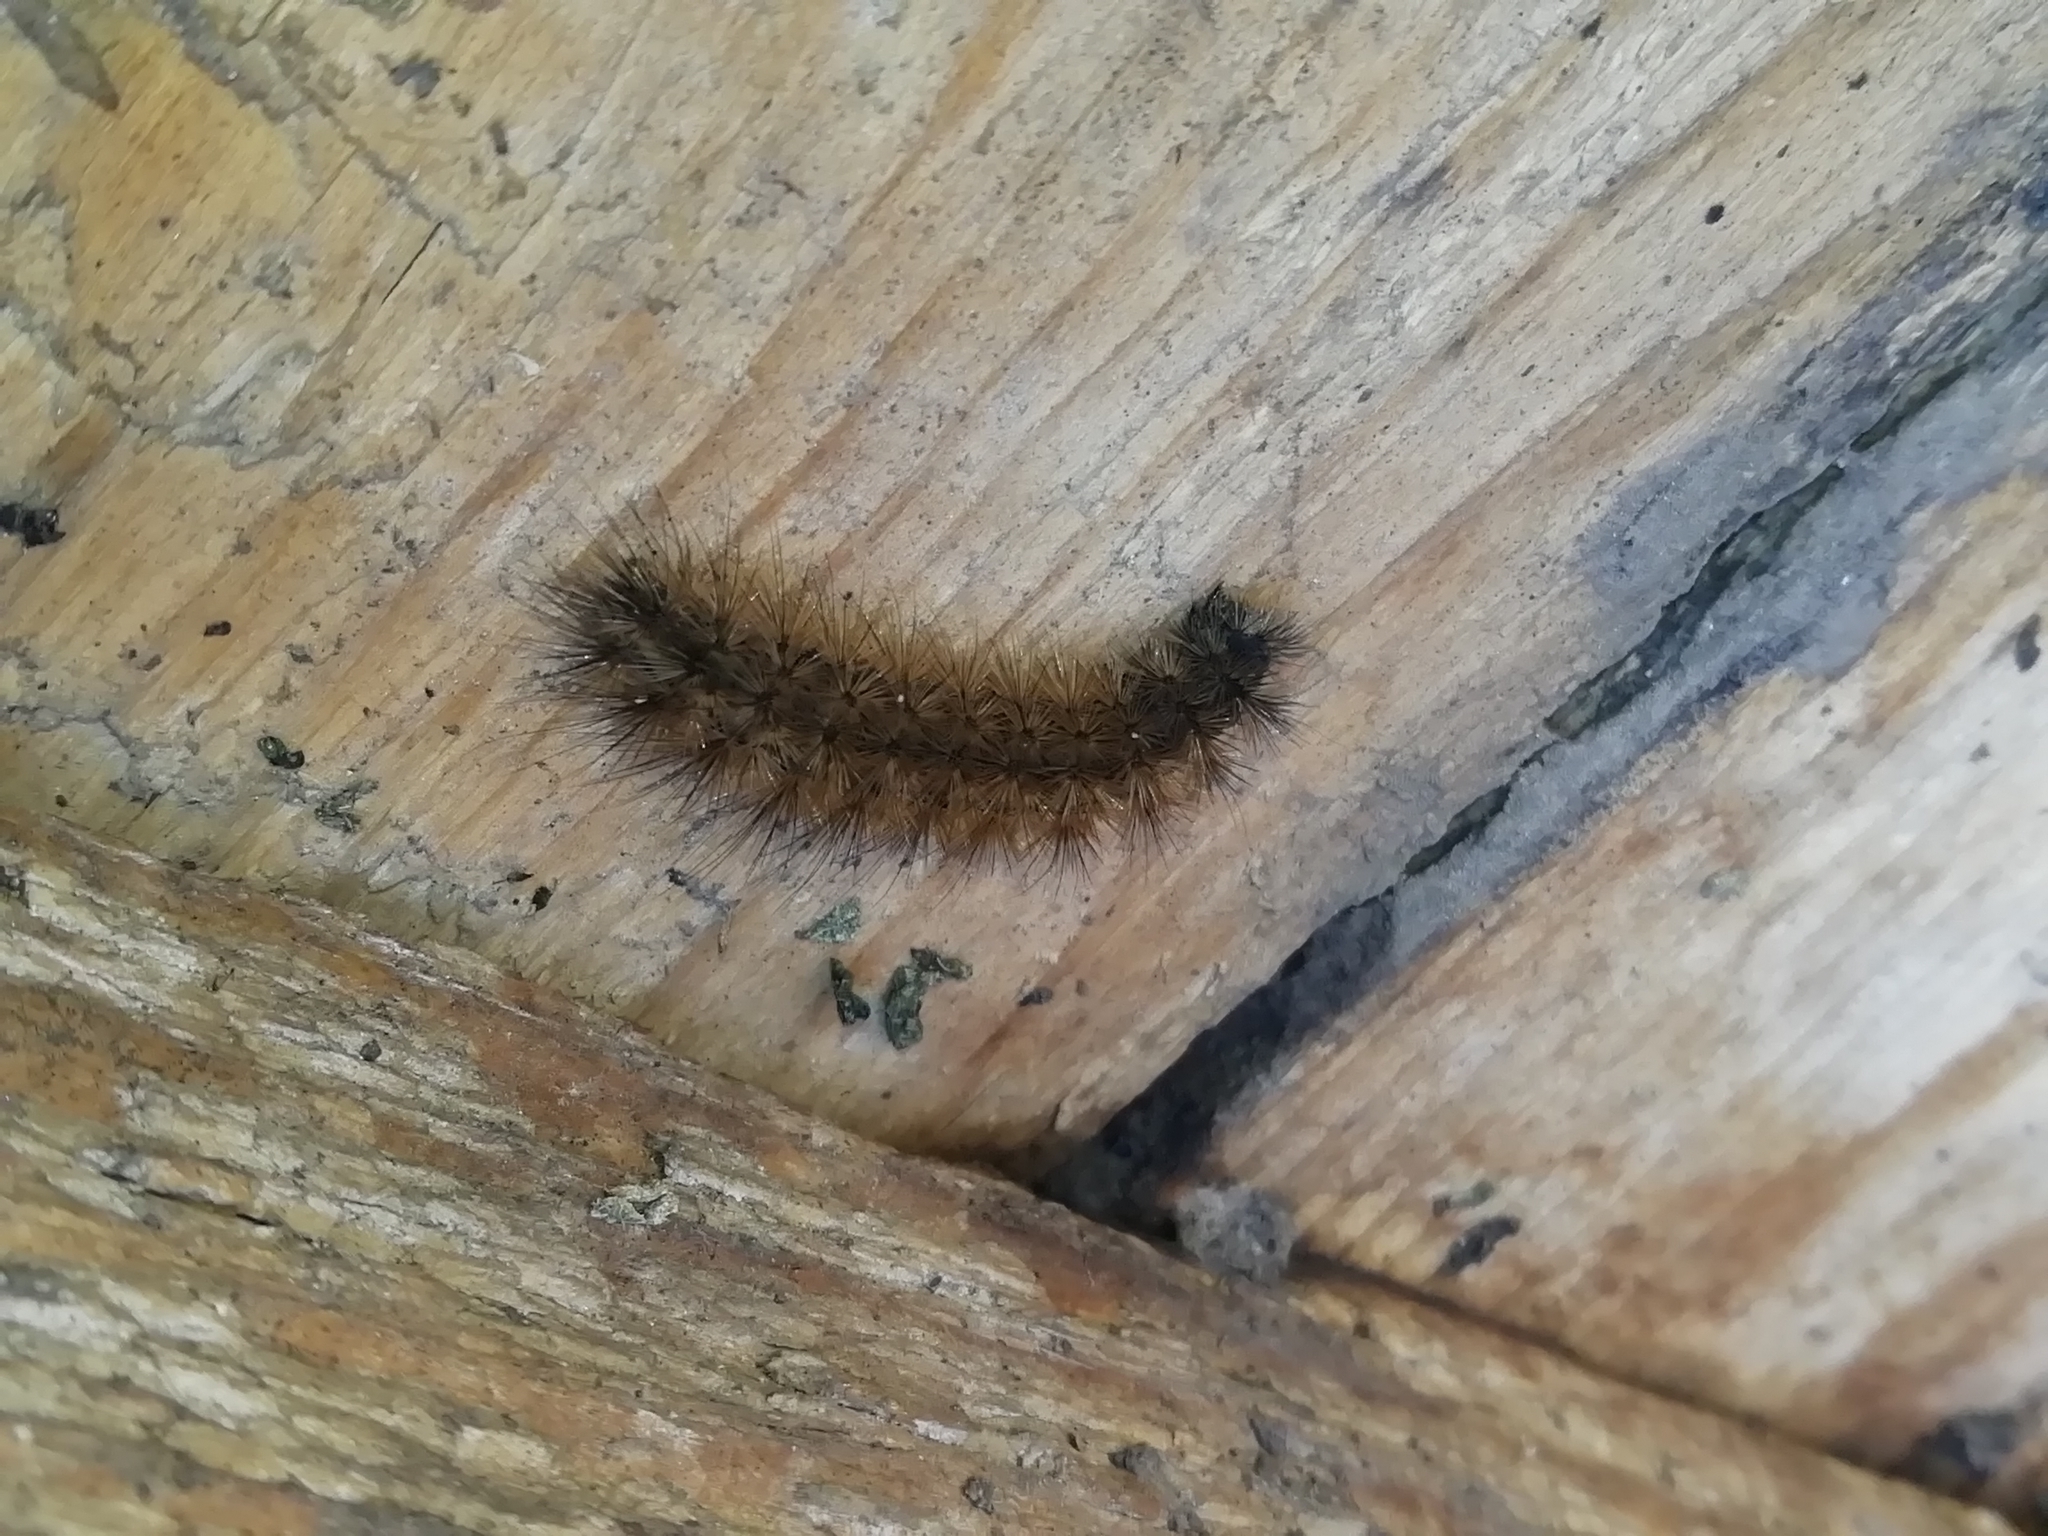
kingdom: Animalia
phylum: Arthropoda
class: Insecta
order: Lepidoptera
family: Erebidae
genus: Phragmatobia
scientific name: Phragmatobia fuliginosa
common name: Ruby tiger
